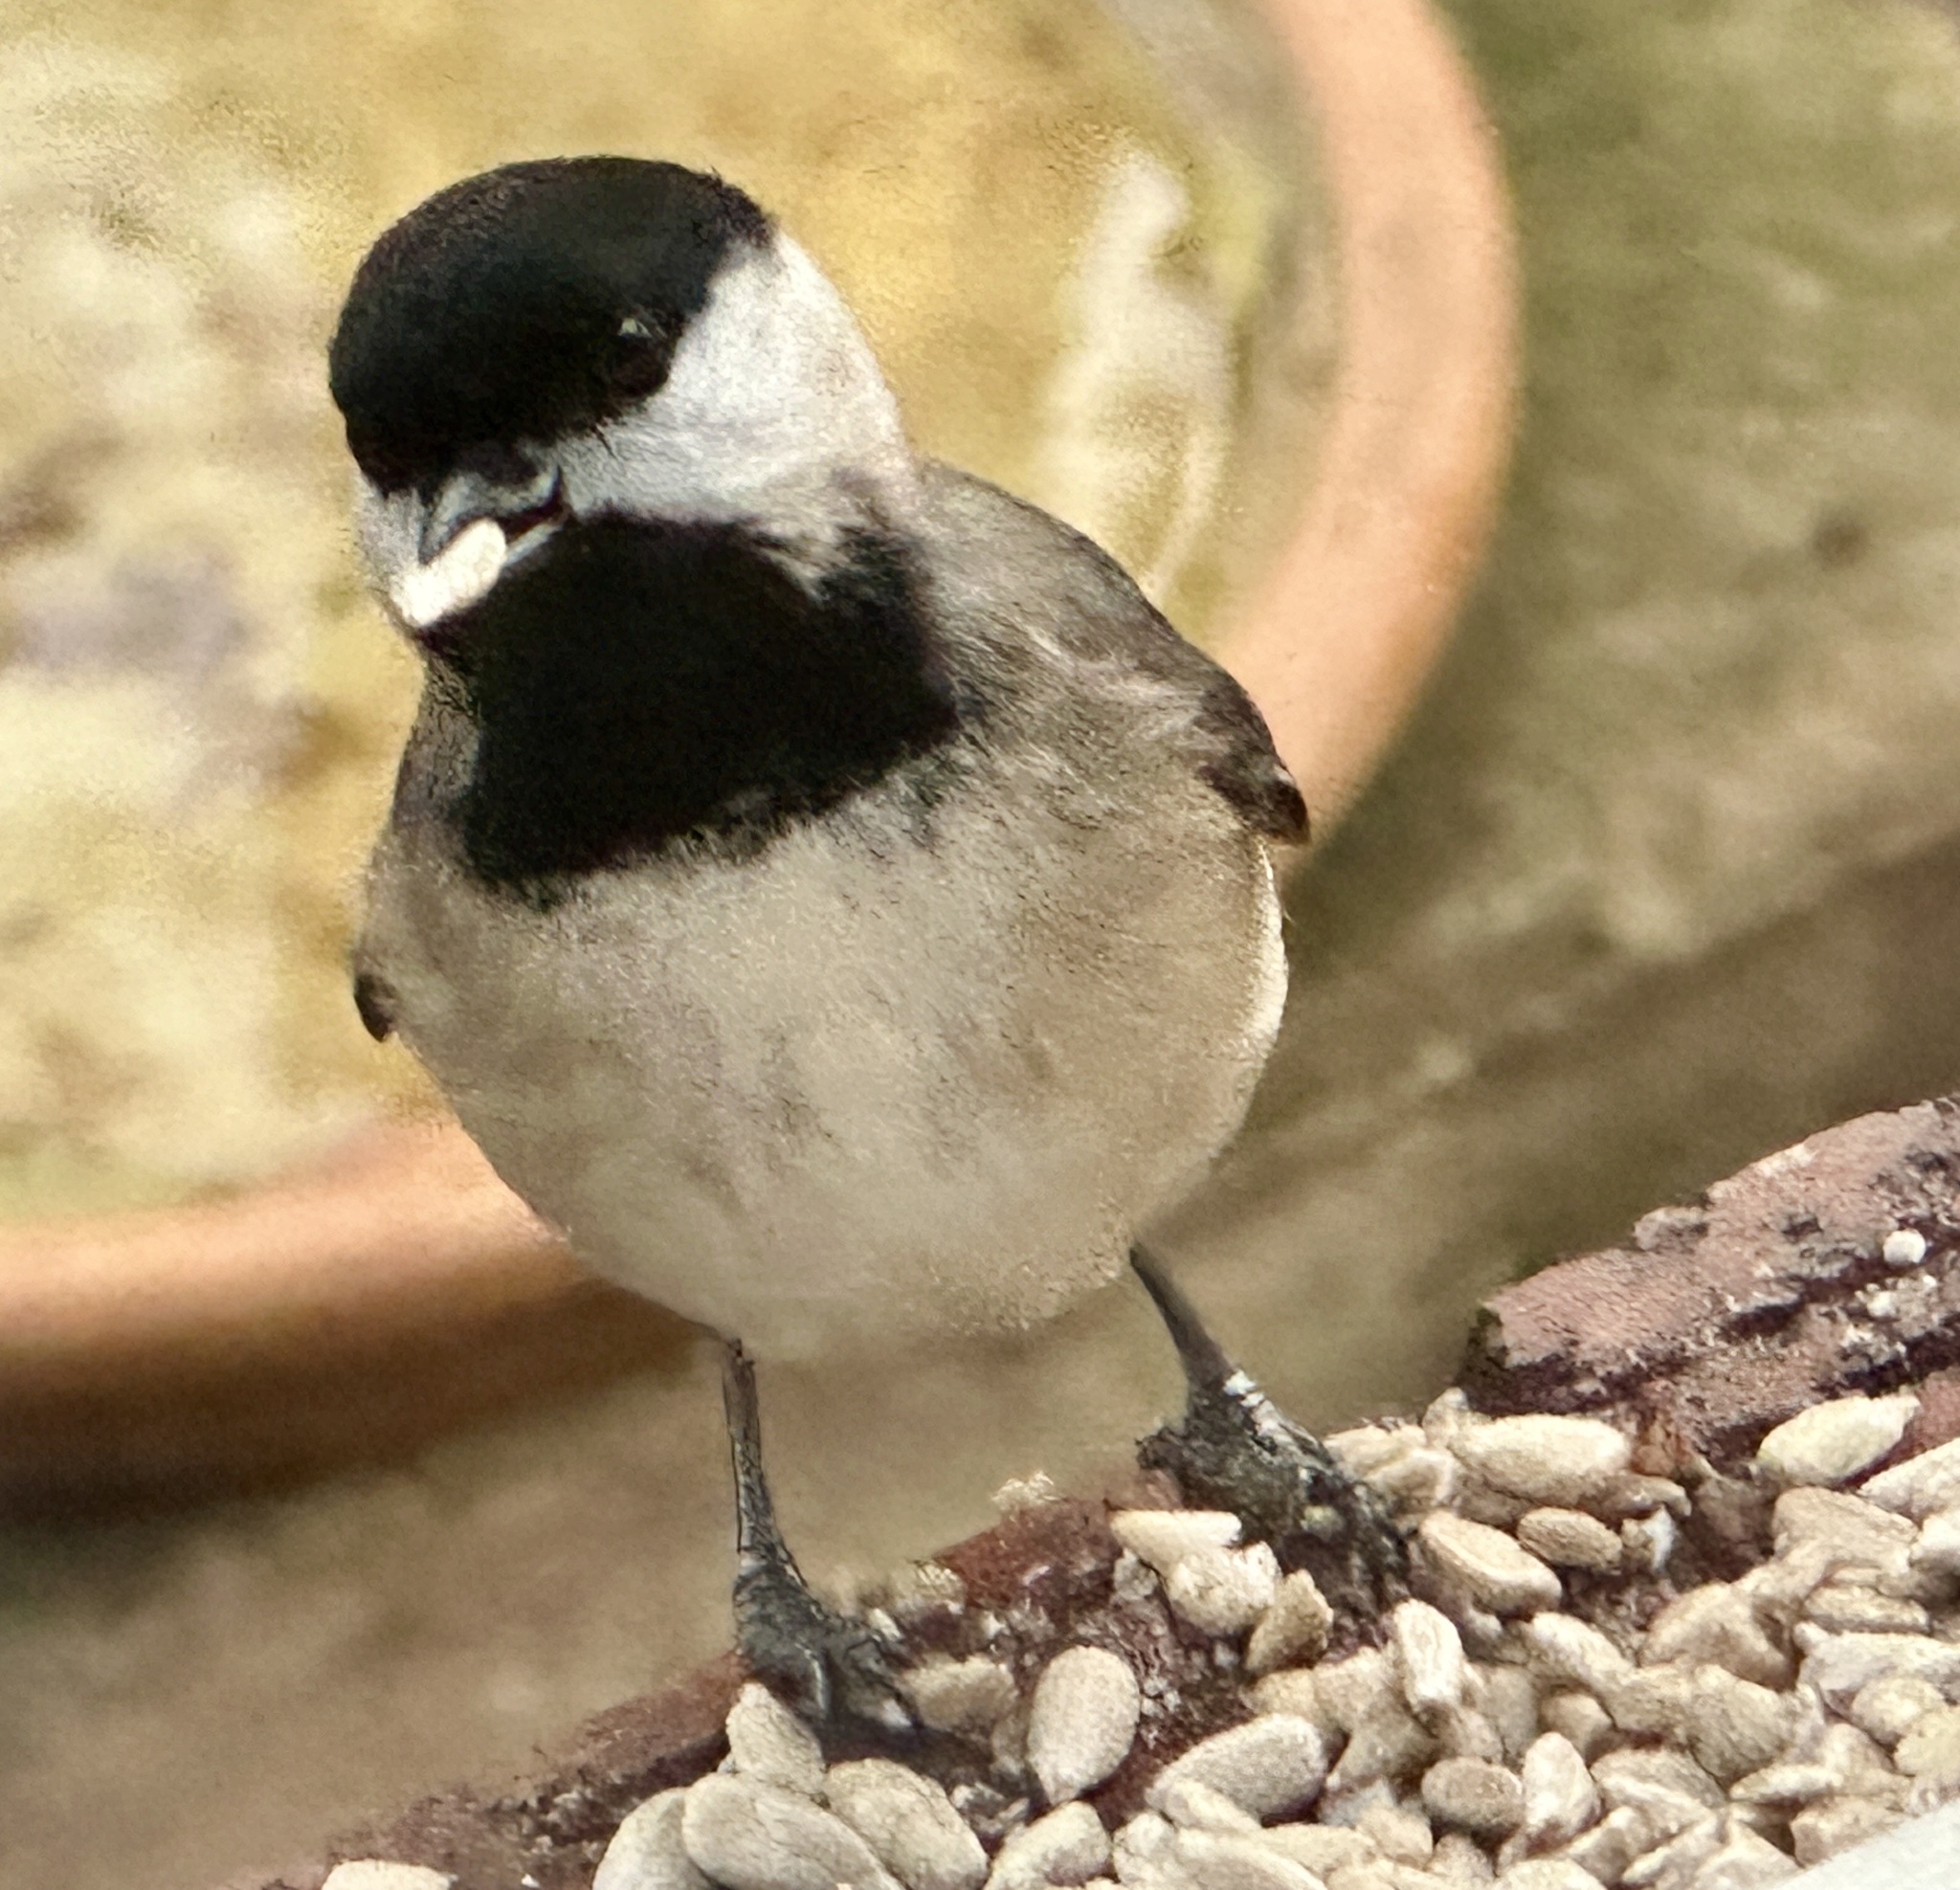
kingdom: Animalia
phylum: Chordata
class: Aves
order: Passeriformes
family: Paridae
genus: Poecile
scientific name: Poecile carolinensis
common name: Carolina chickadee
